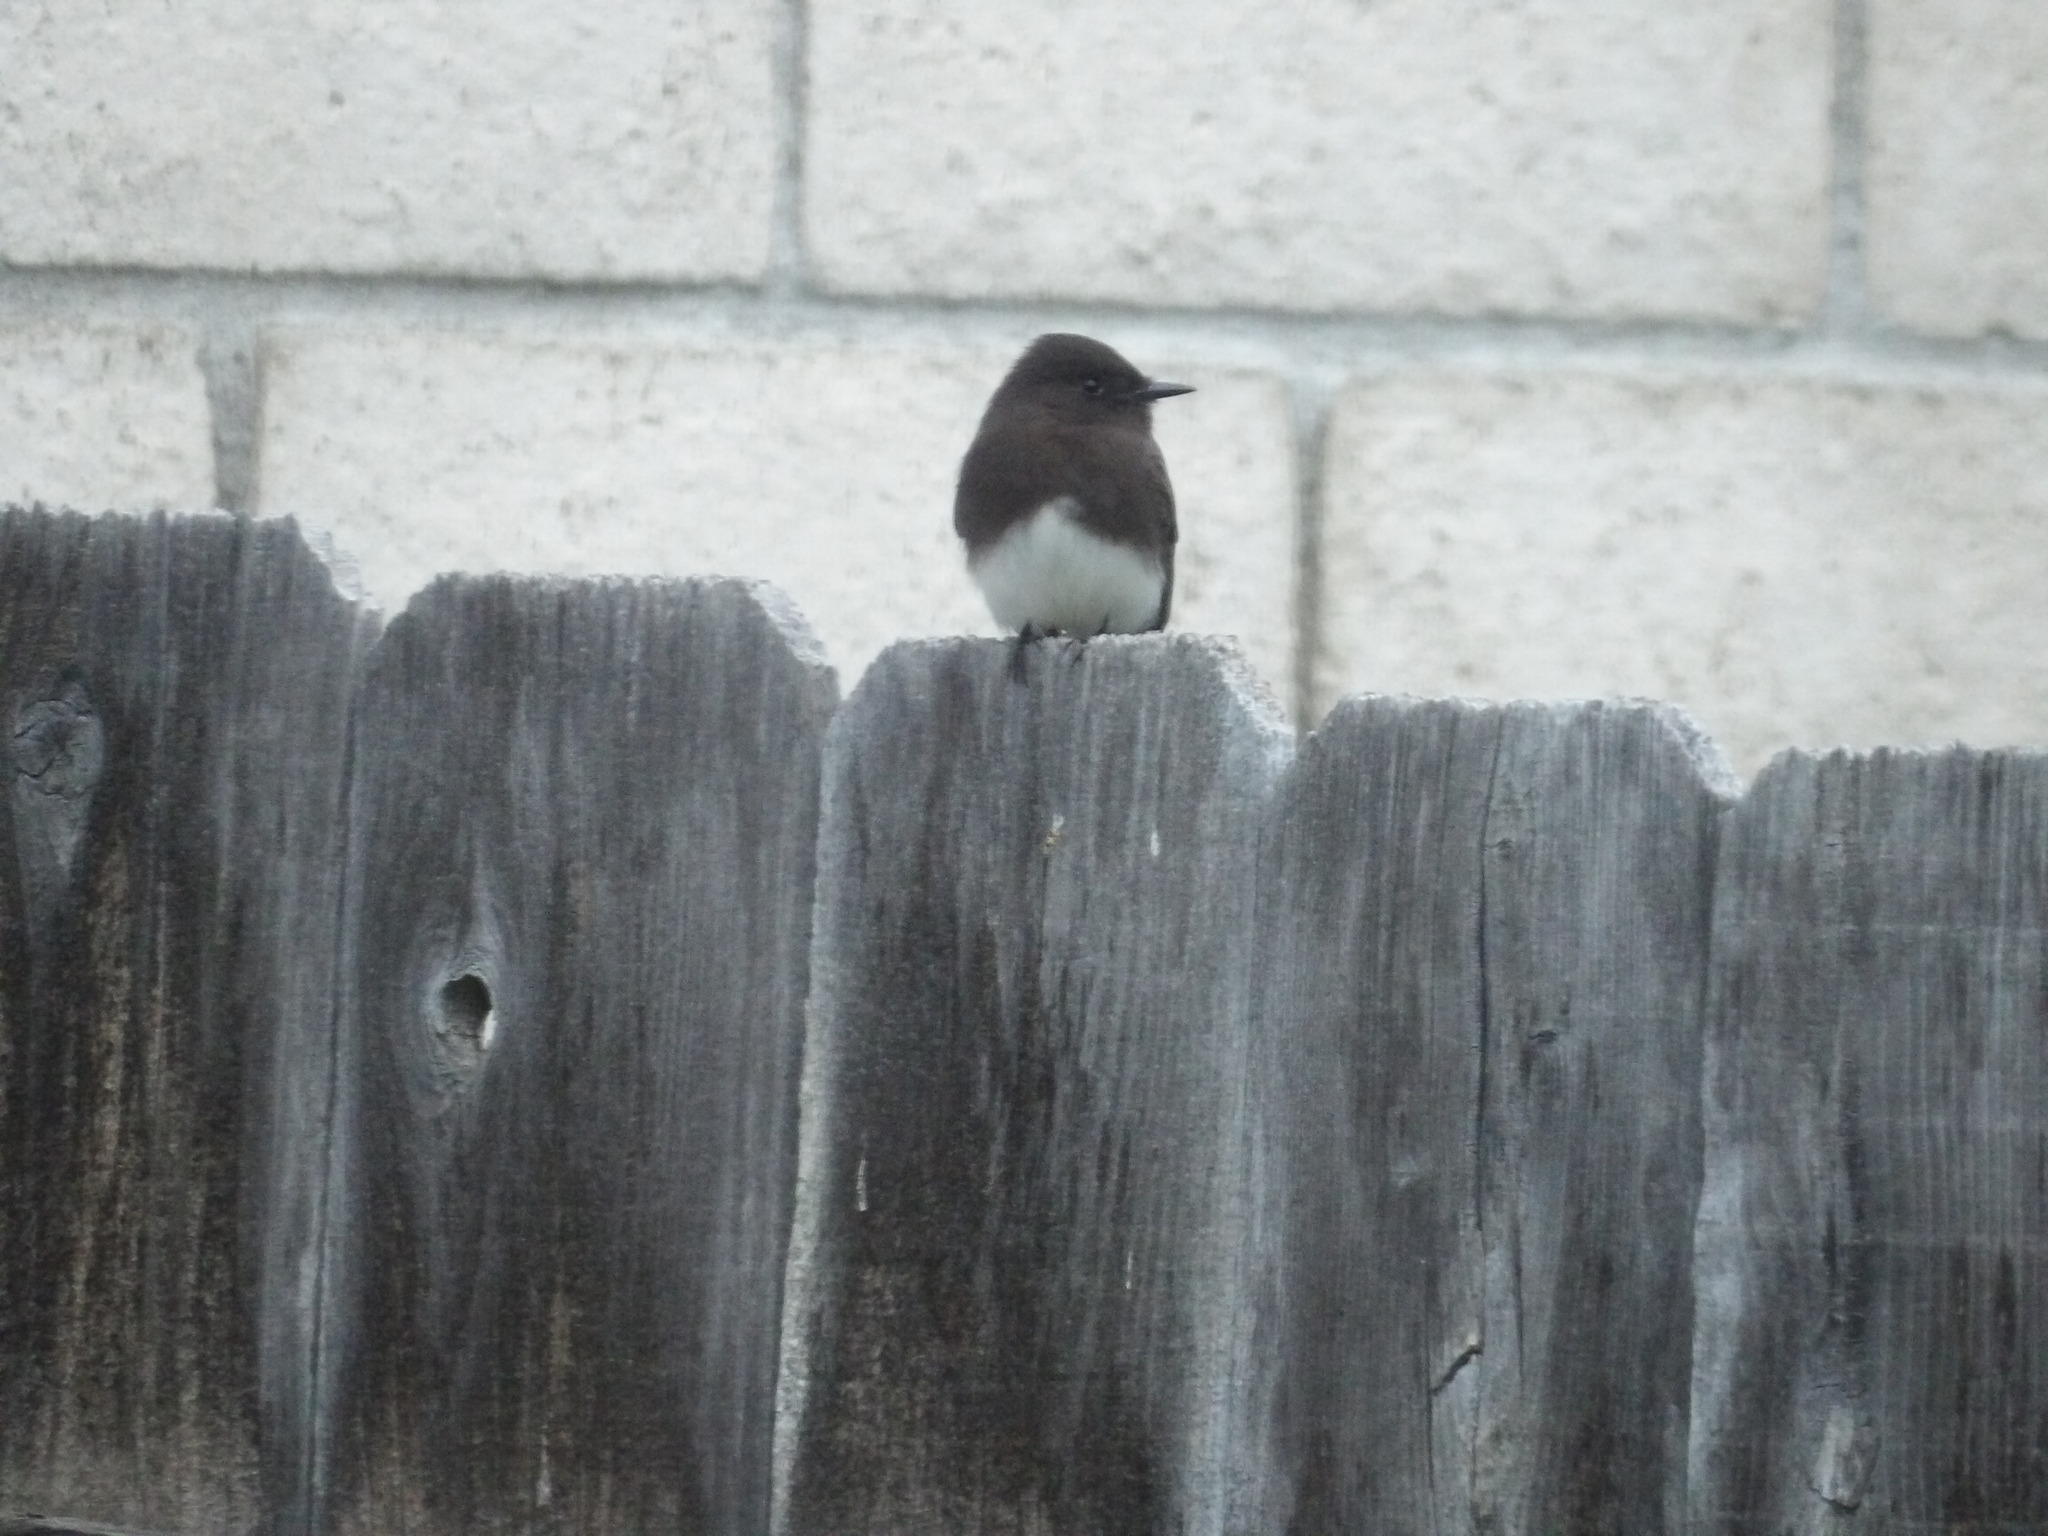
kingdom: Animalia
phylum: Chordata
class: Aves
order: Passeriformes
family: Tyrannidae
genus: Sayornis
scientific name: Sayornis nigricans
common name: Black phoebe
